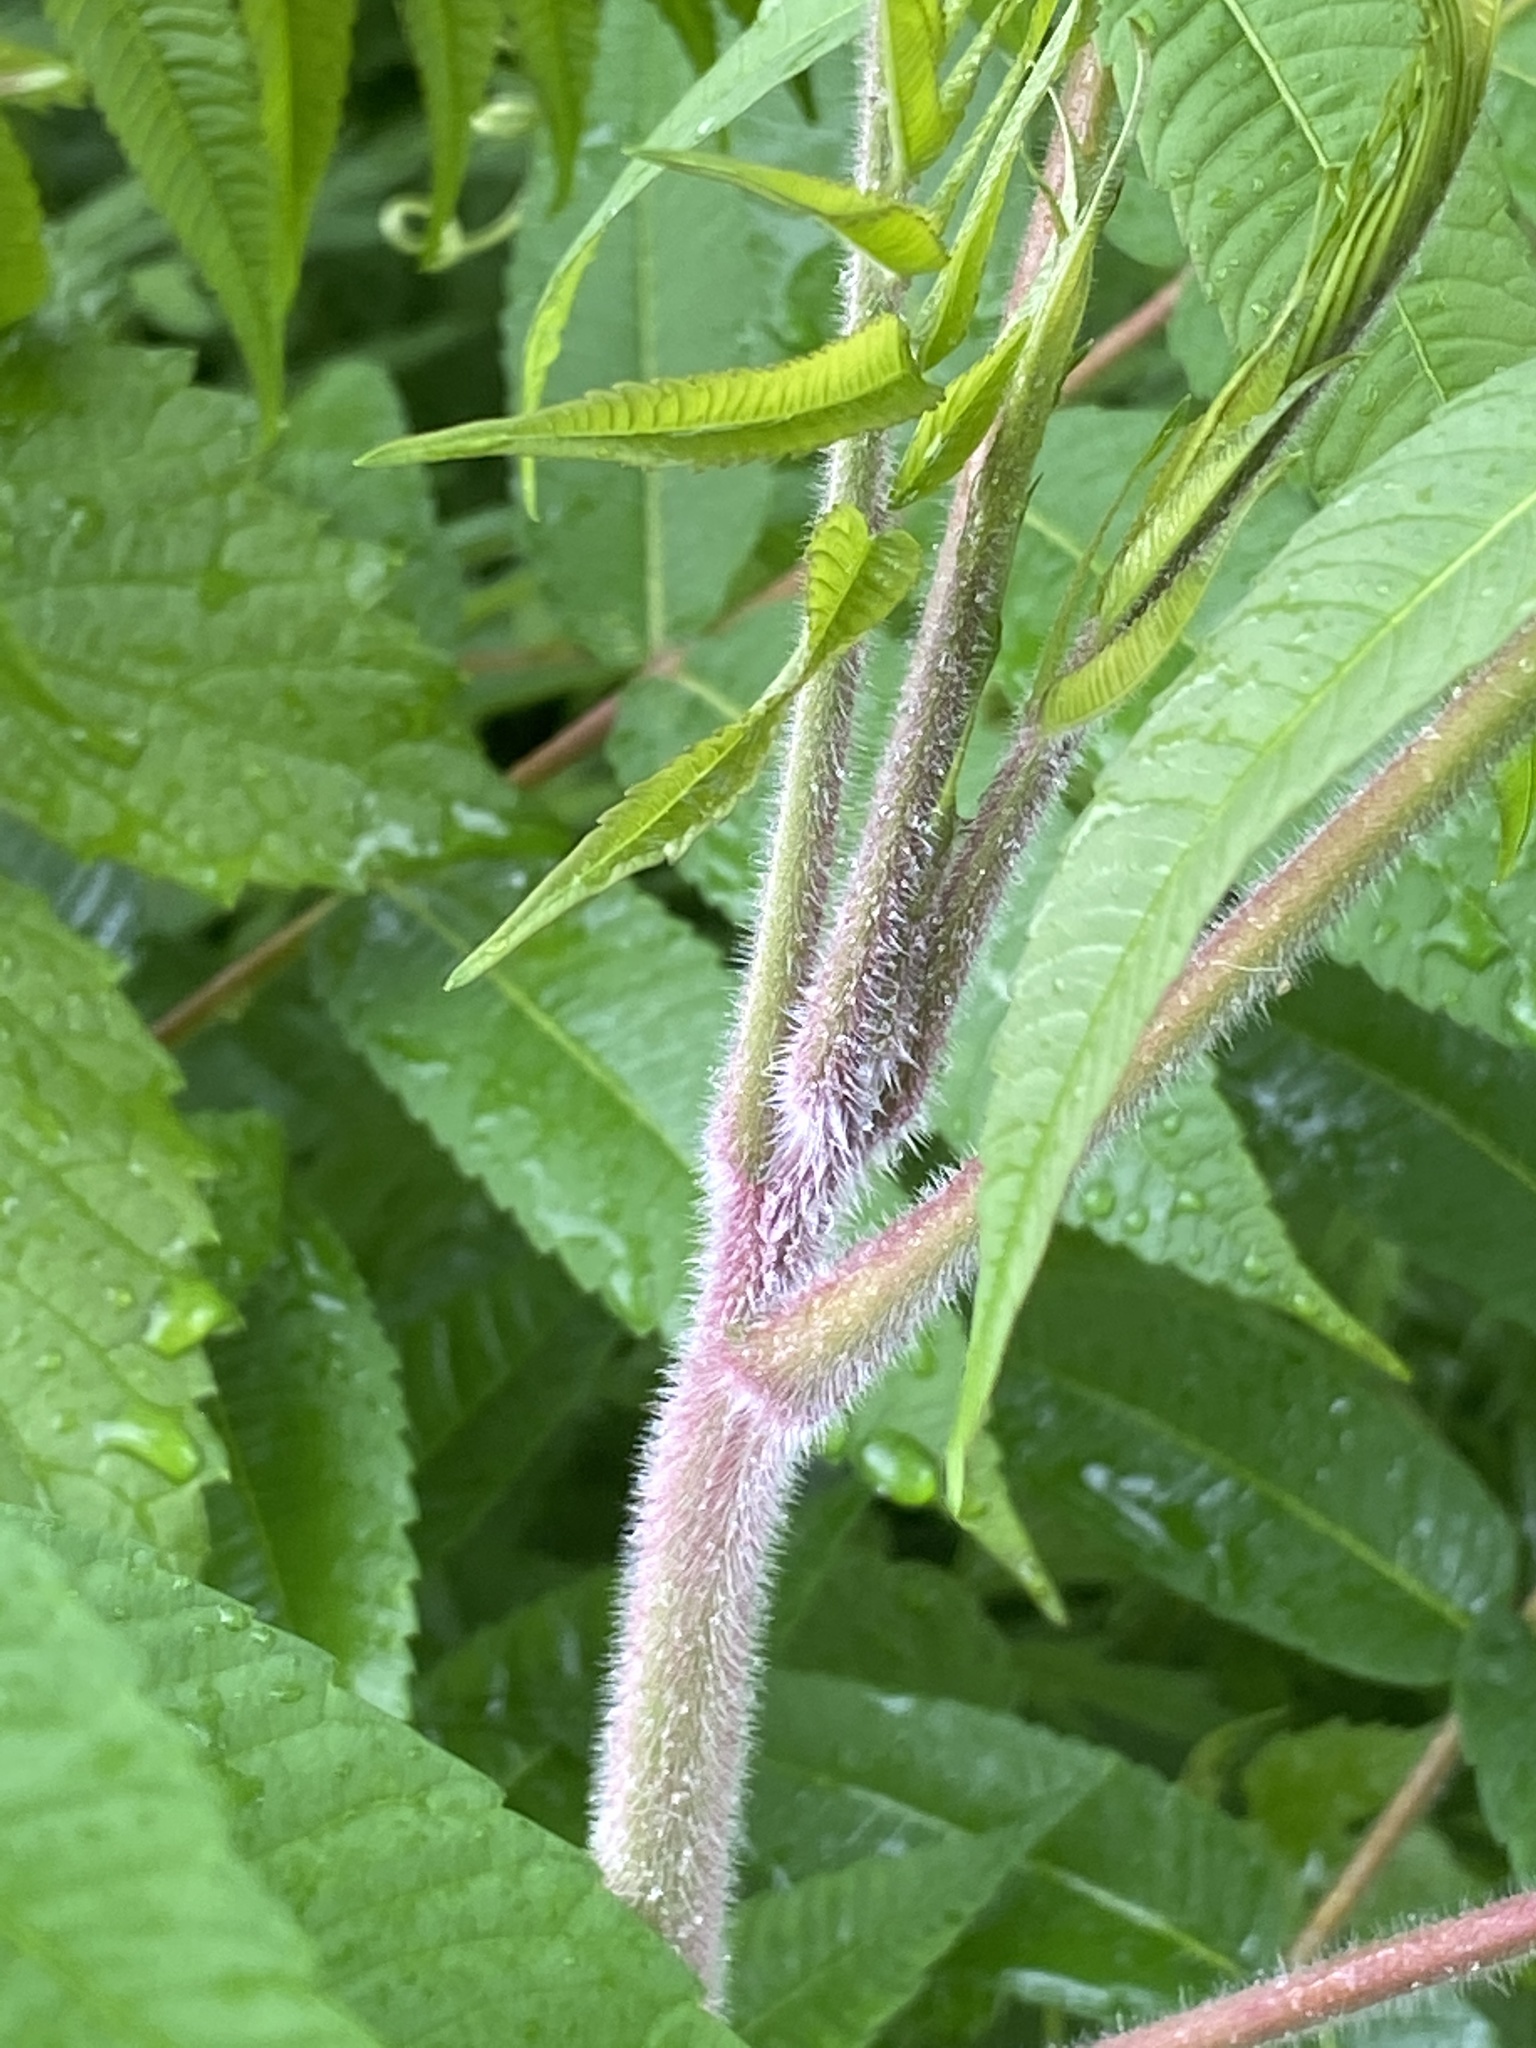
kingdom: Plantae
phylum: Tracheophyta
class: Magnoliopsida
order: Sapindales
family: Anacardiaceae
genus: Rhus
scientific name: Rhus typhina
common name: Staghorn sumac
